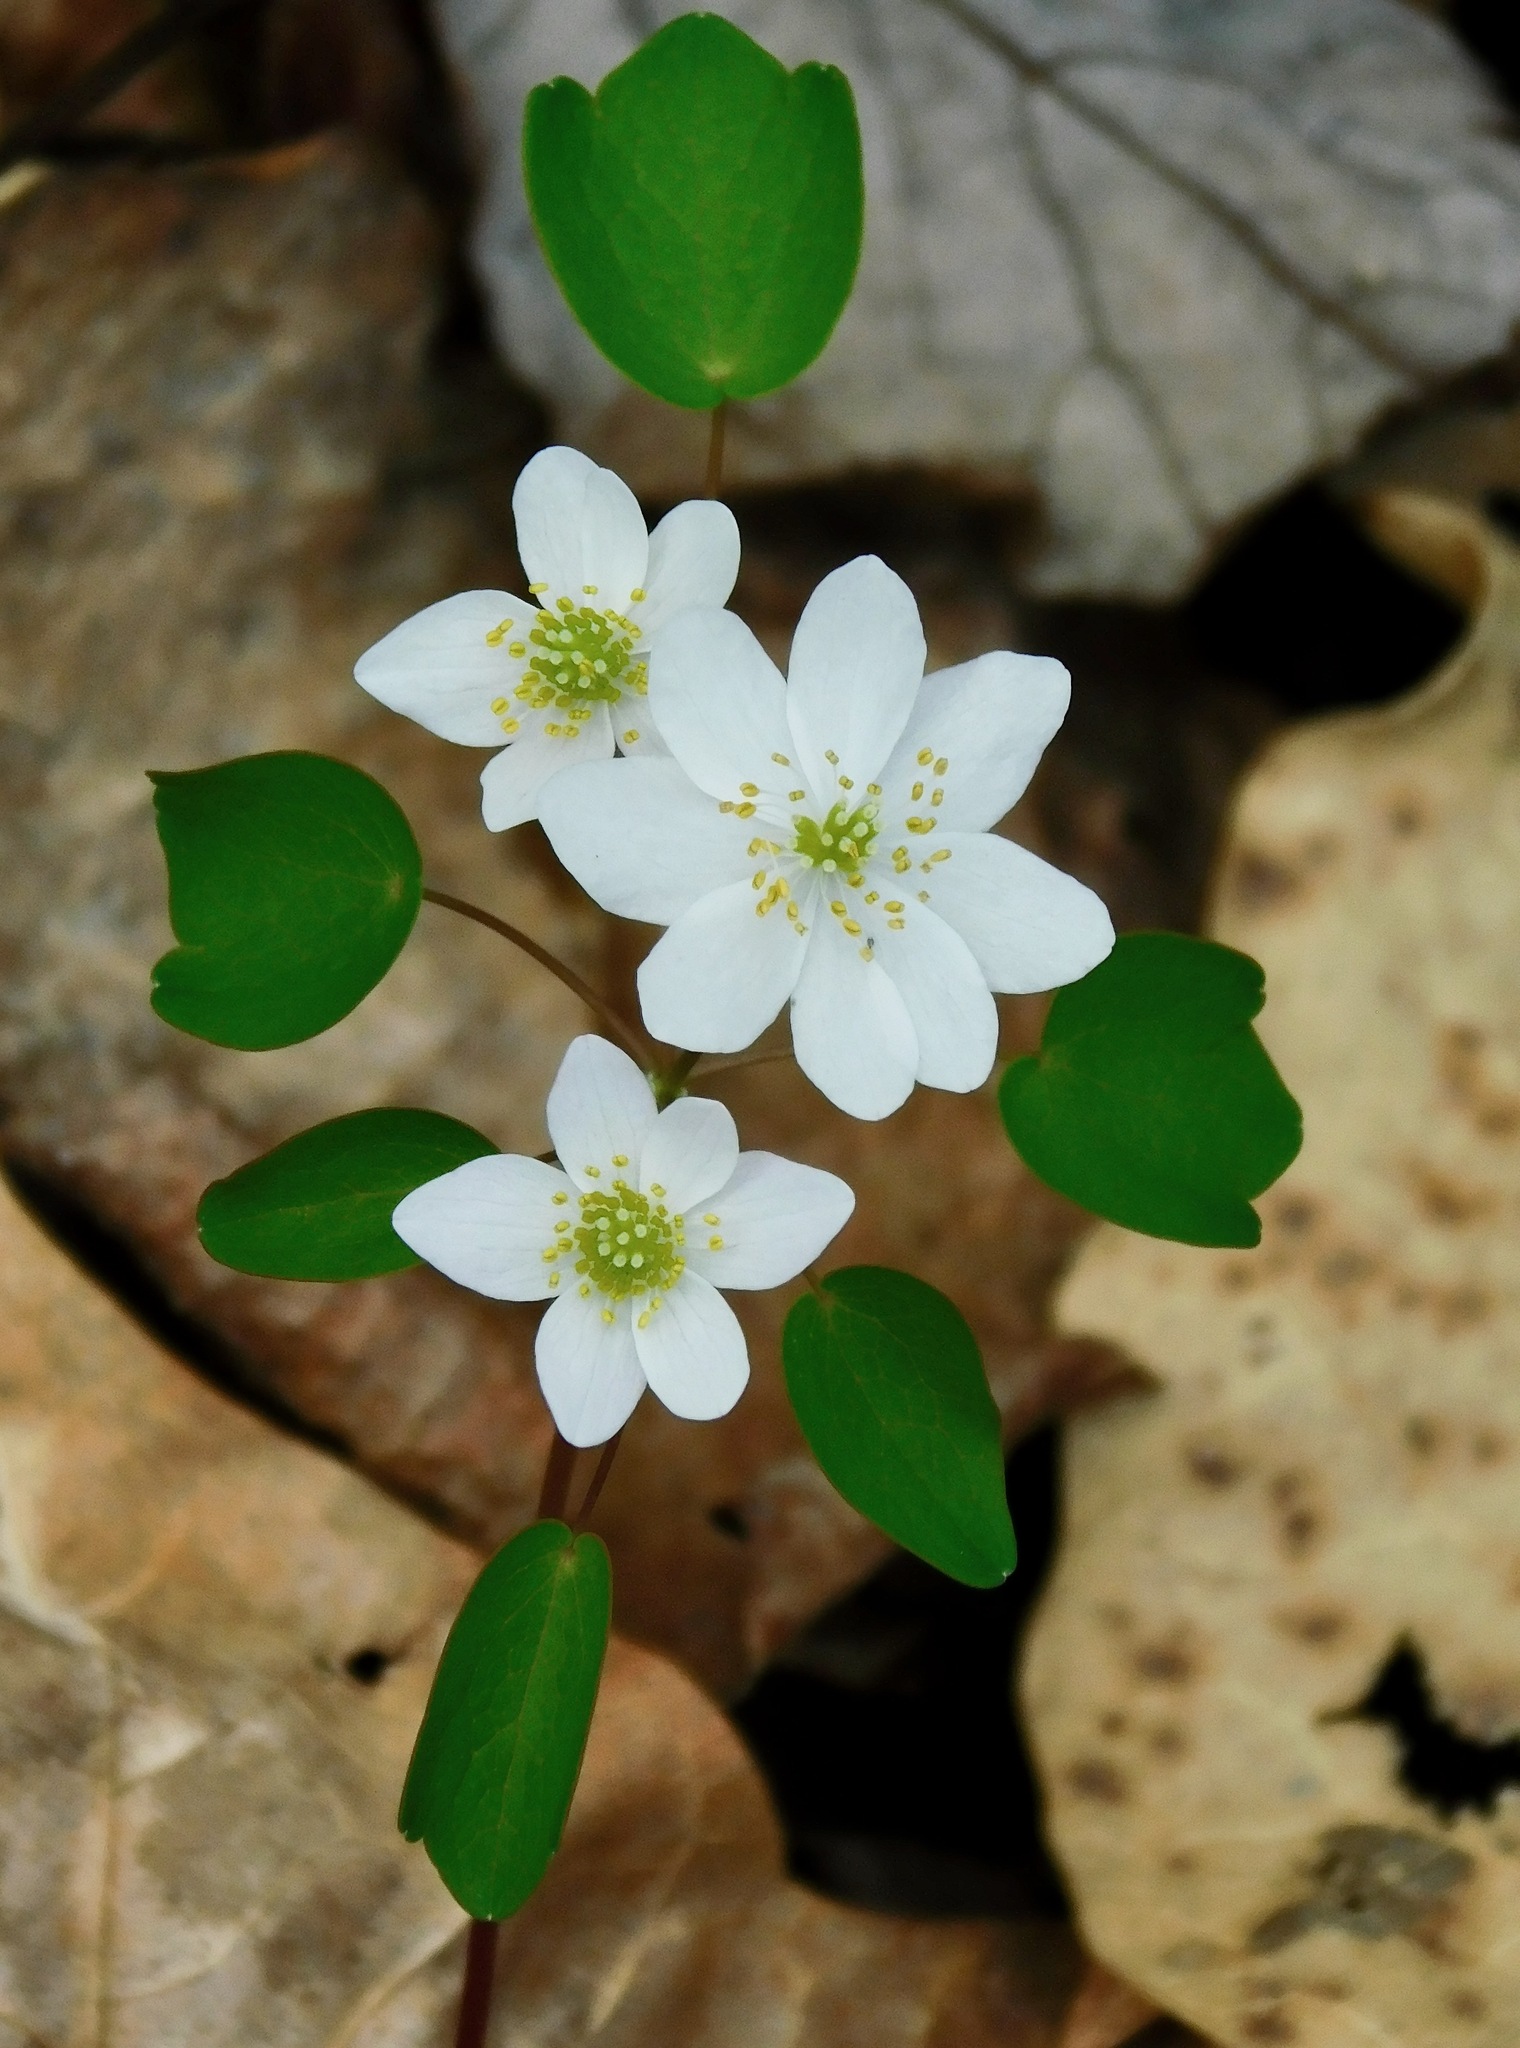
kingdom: Plantae
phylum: Tracheophyta
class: Magnoliopsida
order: Ranunculales
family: Ranunculaceae
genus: Thalictrum
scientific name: Thalictrum thalictroides
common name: Rue-anemone
